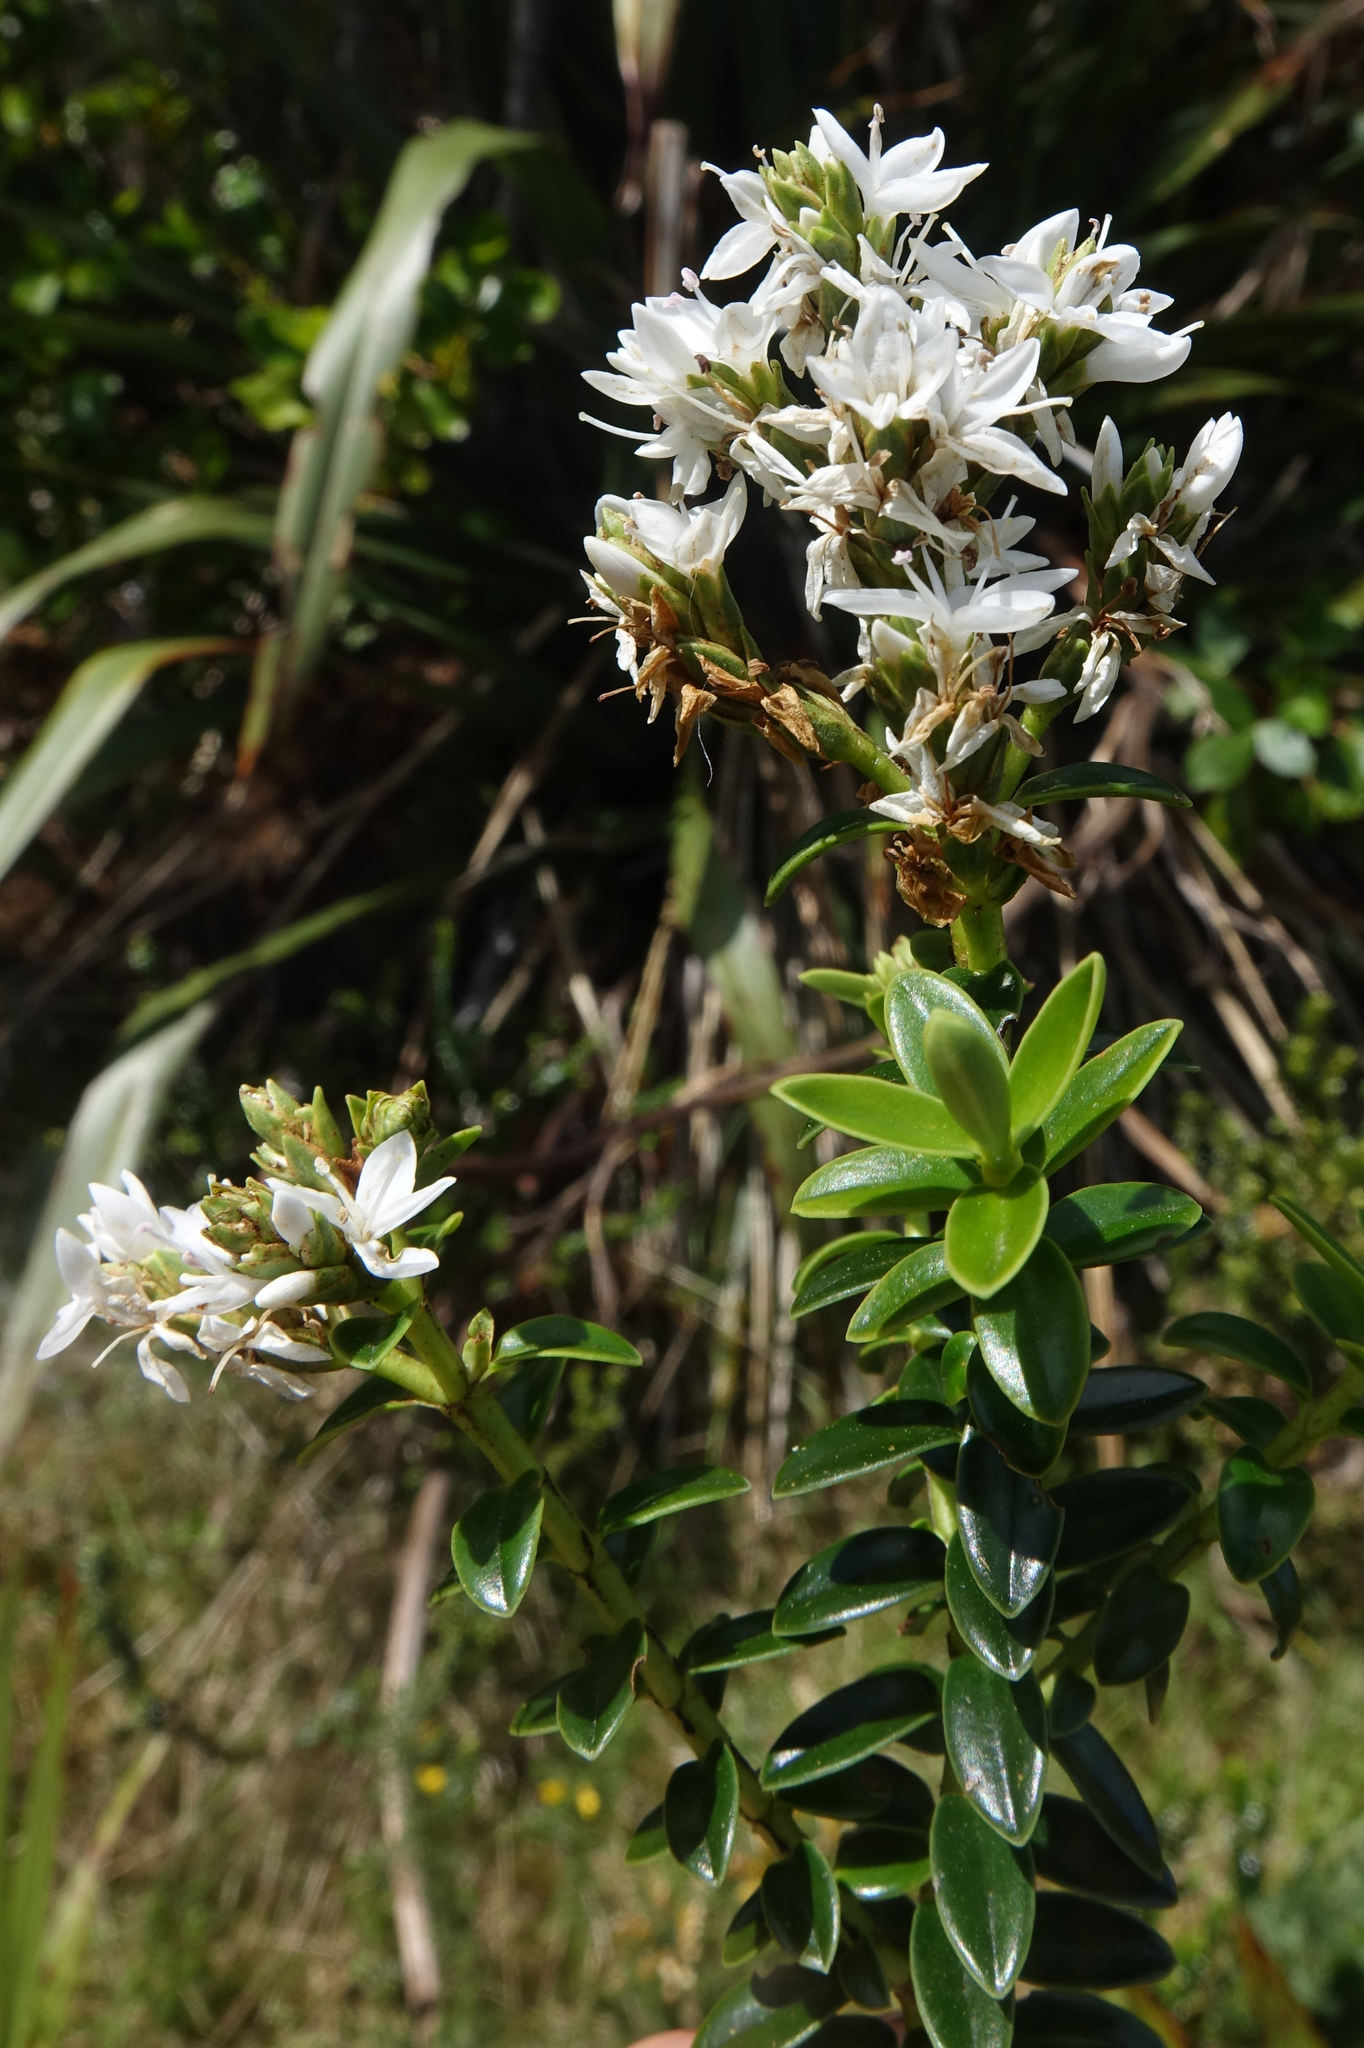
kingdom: Plantae
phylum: Tracheophyta
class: Magnoliopsida
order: Lamiales
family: Plantaginaceae
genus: Veronica
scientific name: Veronica odora
